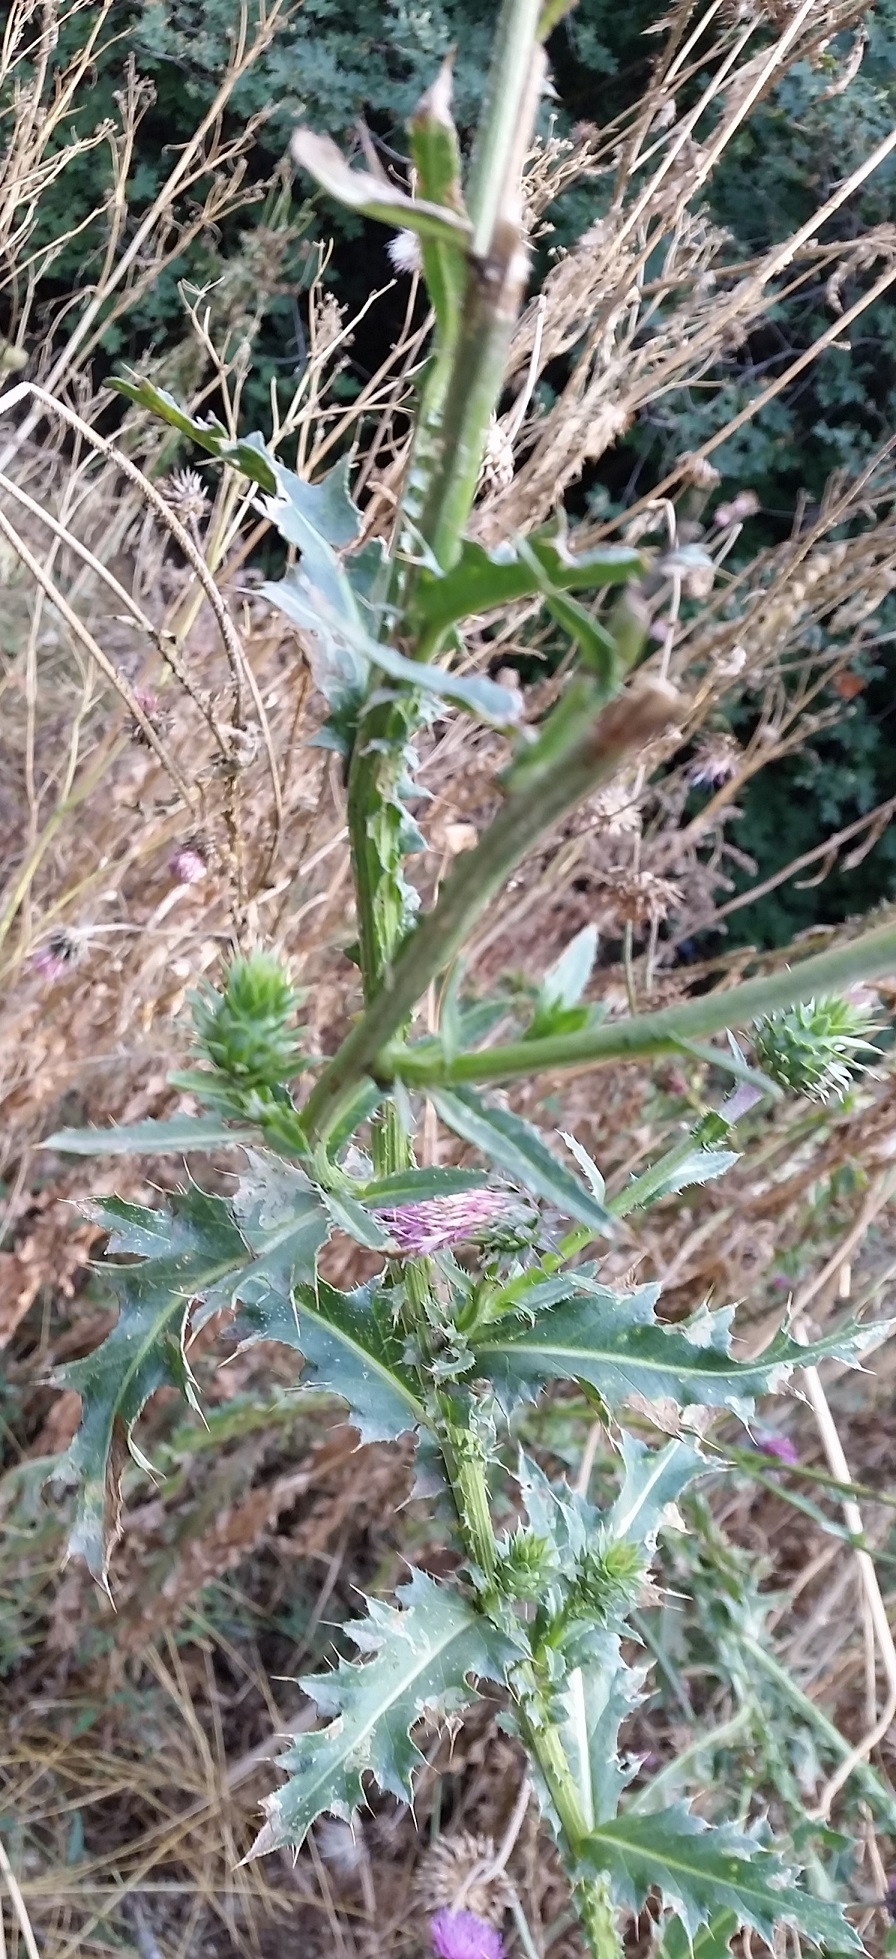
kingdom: Plantae
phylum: Tracheophyta
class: Magnoliopsida
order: Asterales
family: Asteraceae
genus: Carduus
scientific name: Carduus nutans
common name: Musk thistle
